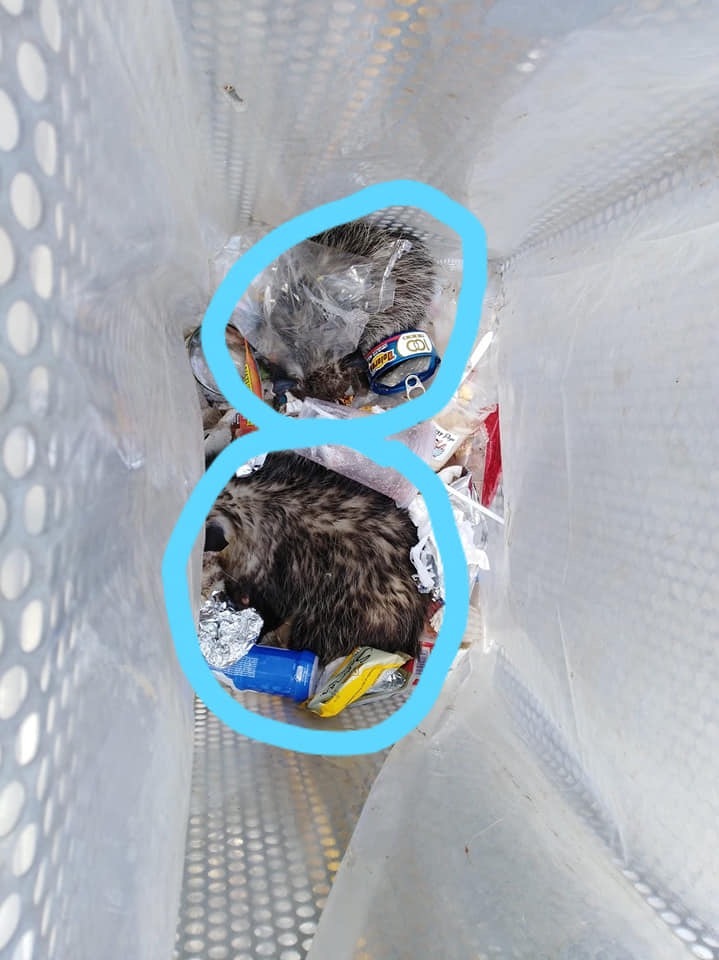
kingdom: Animalia
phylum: Chordata
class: Mammalia
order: Didelphimorphia
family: Didelphidae
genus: Didelphis
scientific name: Didelphis virginiana
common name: Virginia opossum
